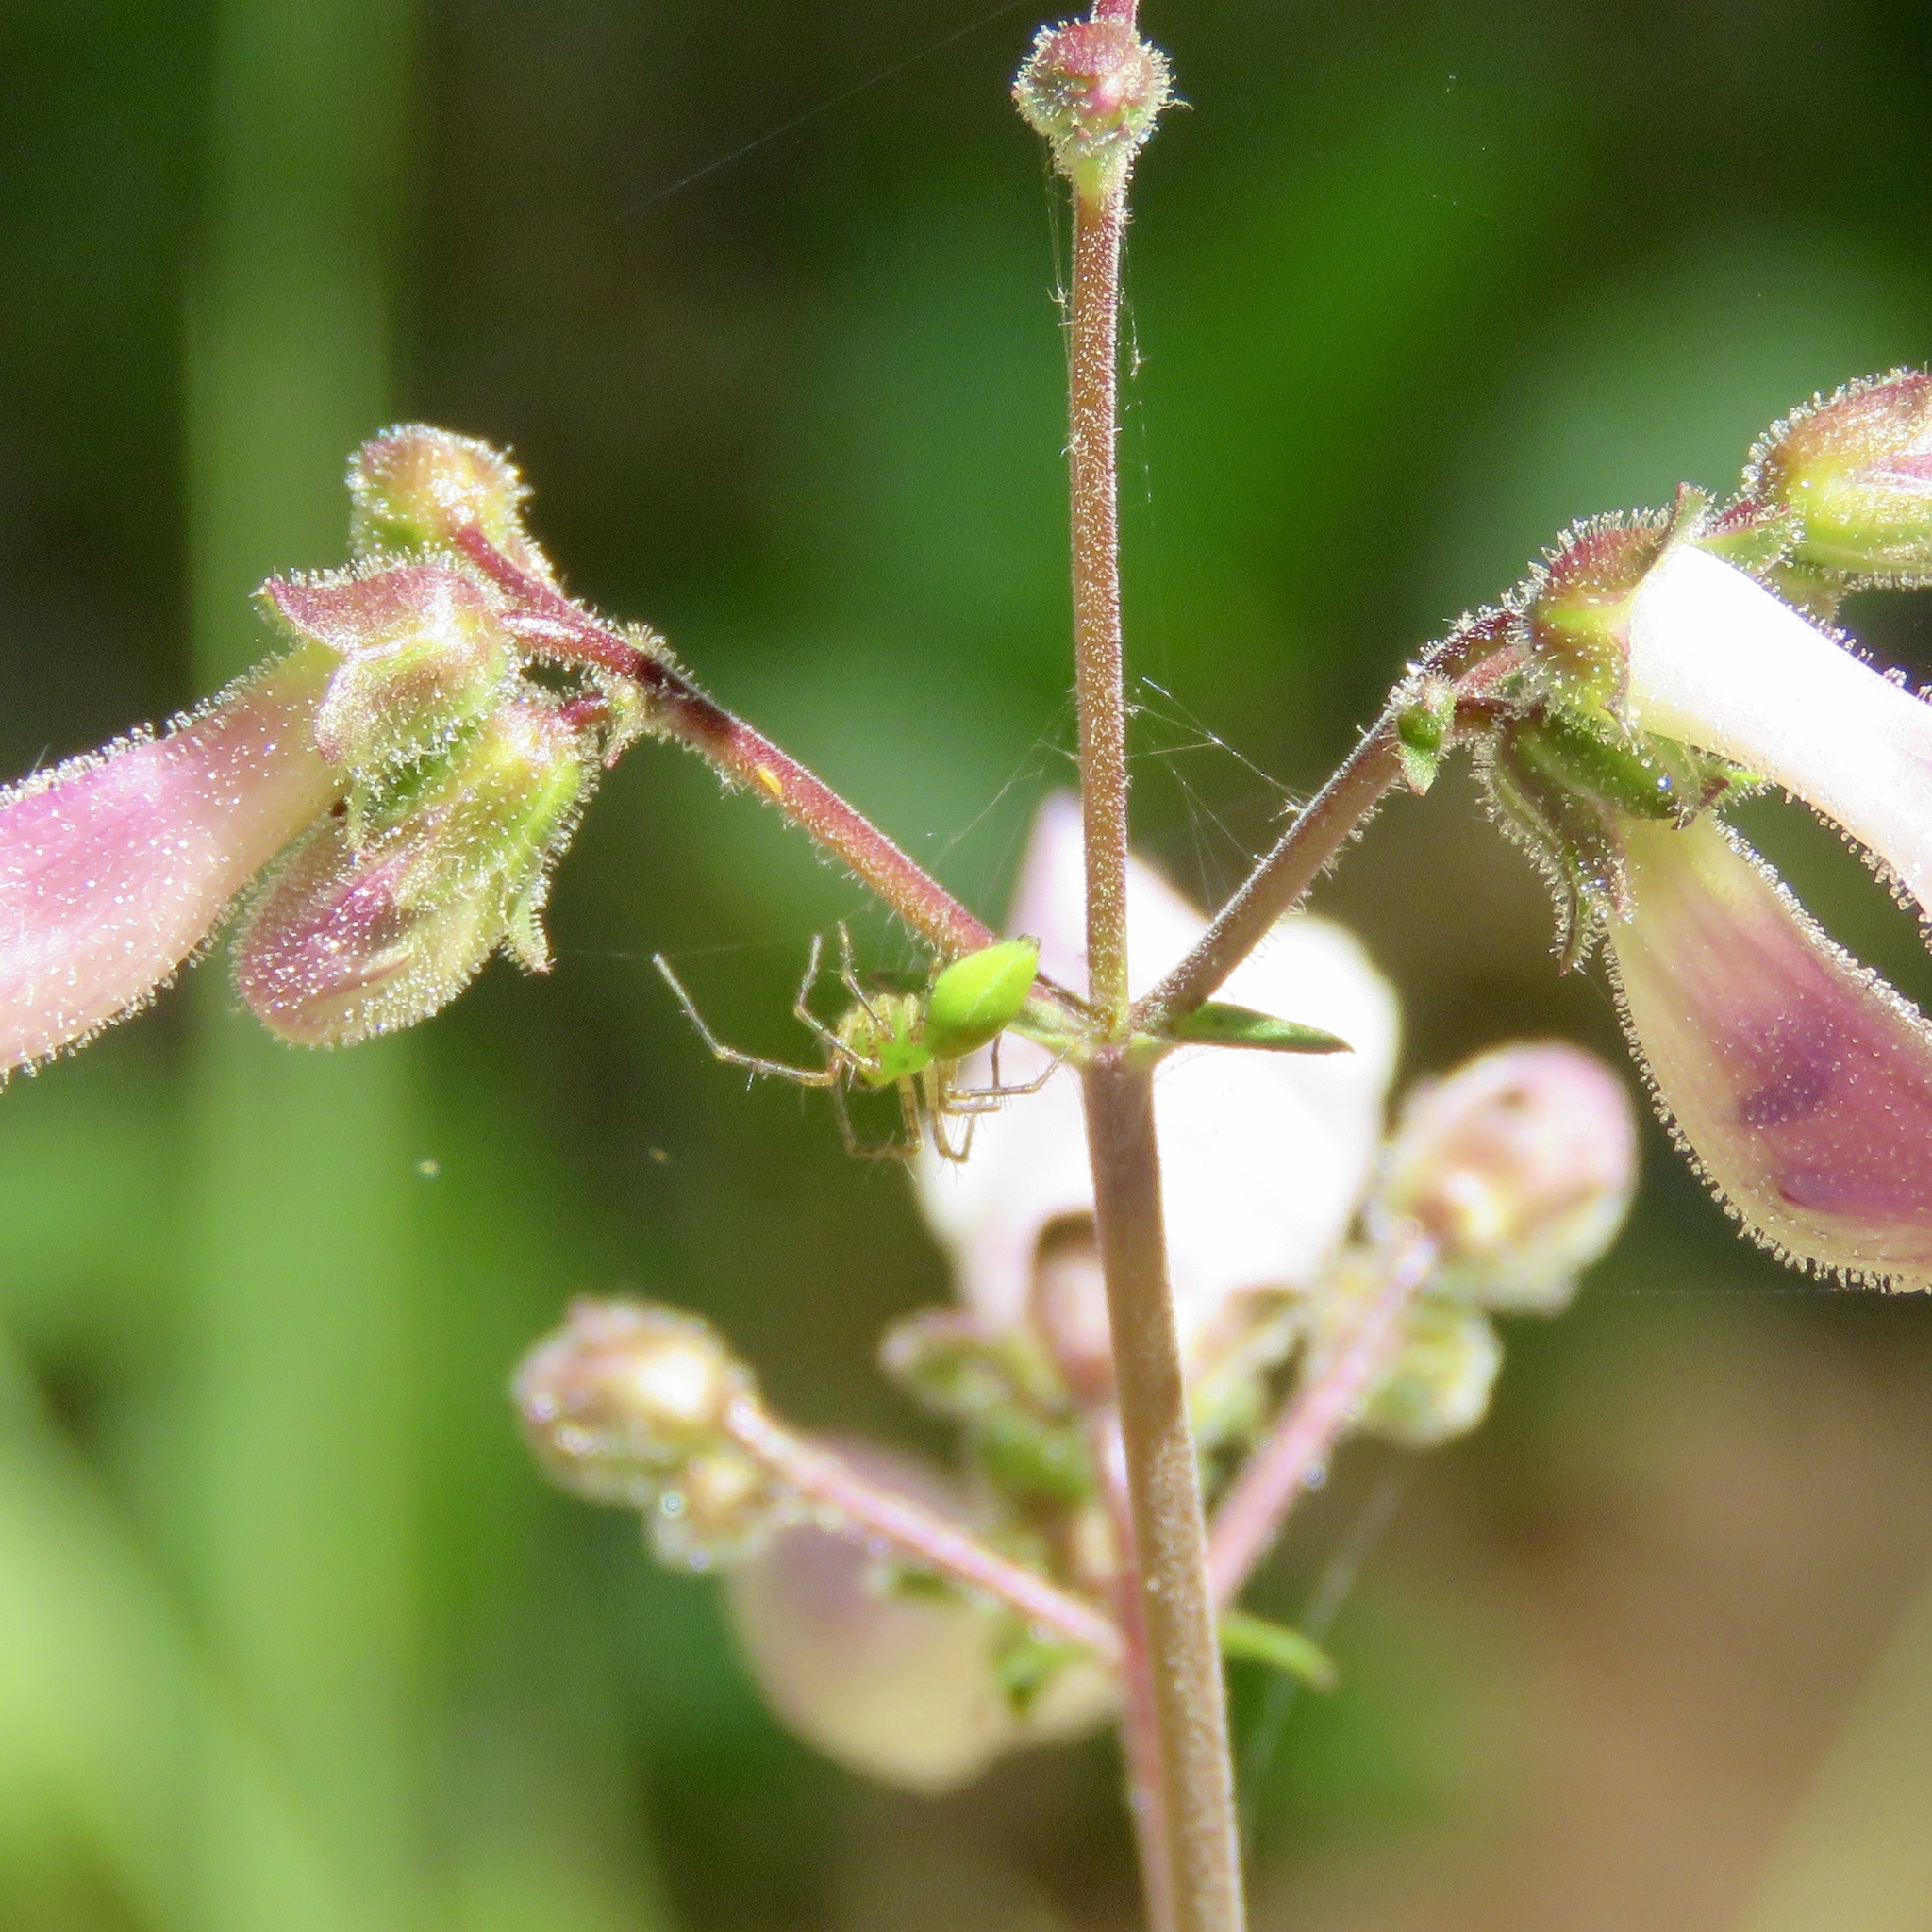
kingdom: Animalia
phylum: Arthropoda
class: Arachnida
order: Araneae
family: Oxyopidae
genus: Peucetia
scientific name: Peucetia longipalpis
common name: Lynx spiders
